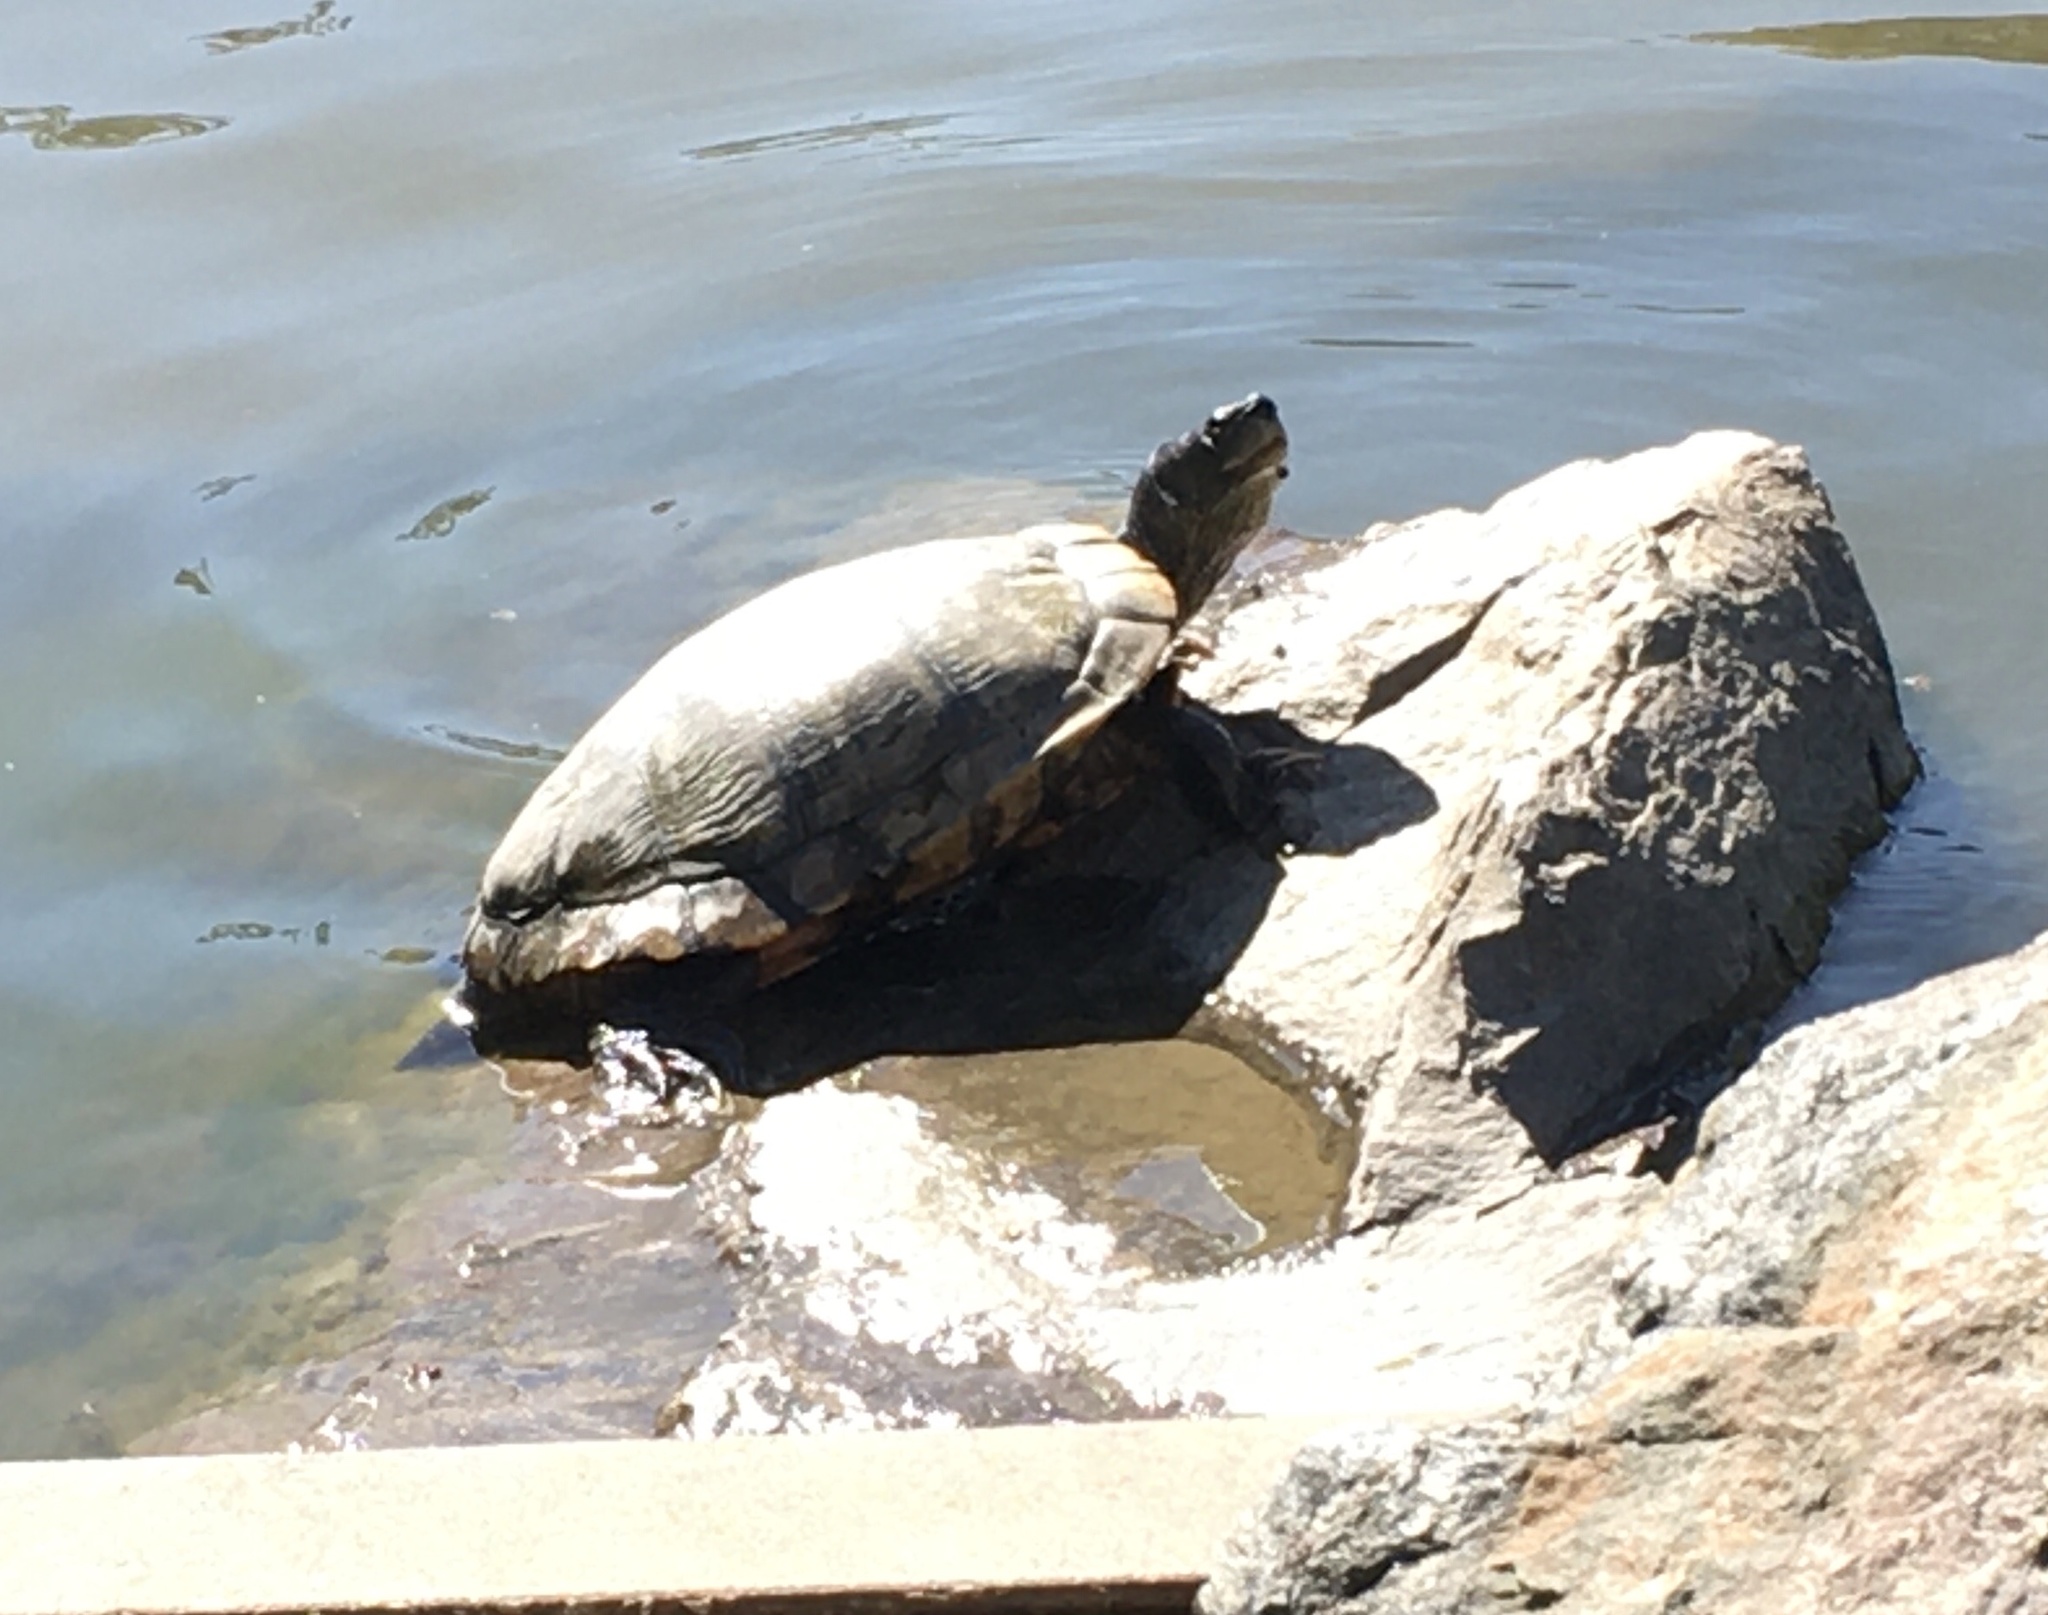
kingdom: Animalia
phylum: Chordata
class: Testudines
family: Emydidae
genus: Trachemys
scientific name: Trachemys scripta
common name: Slider
